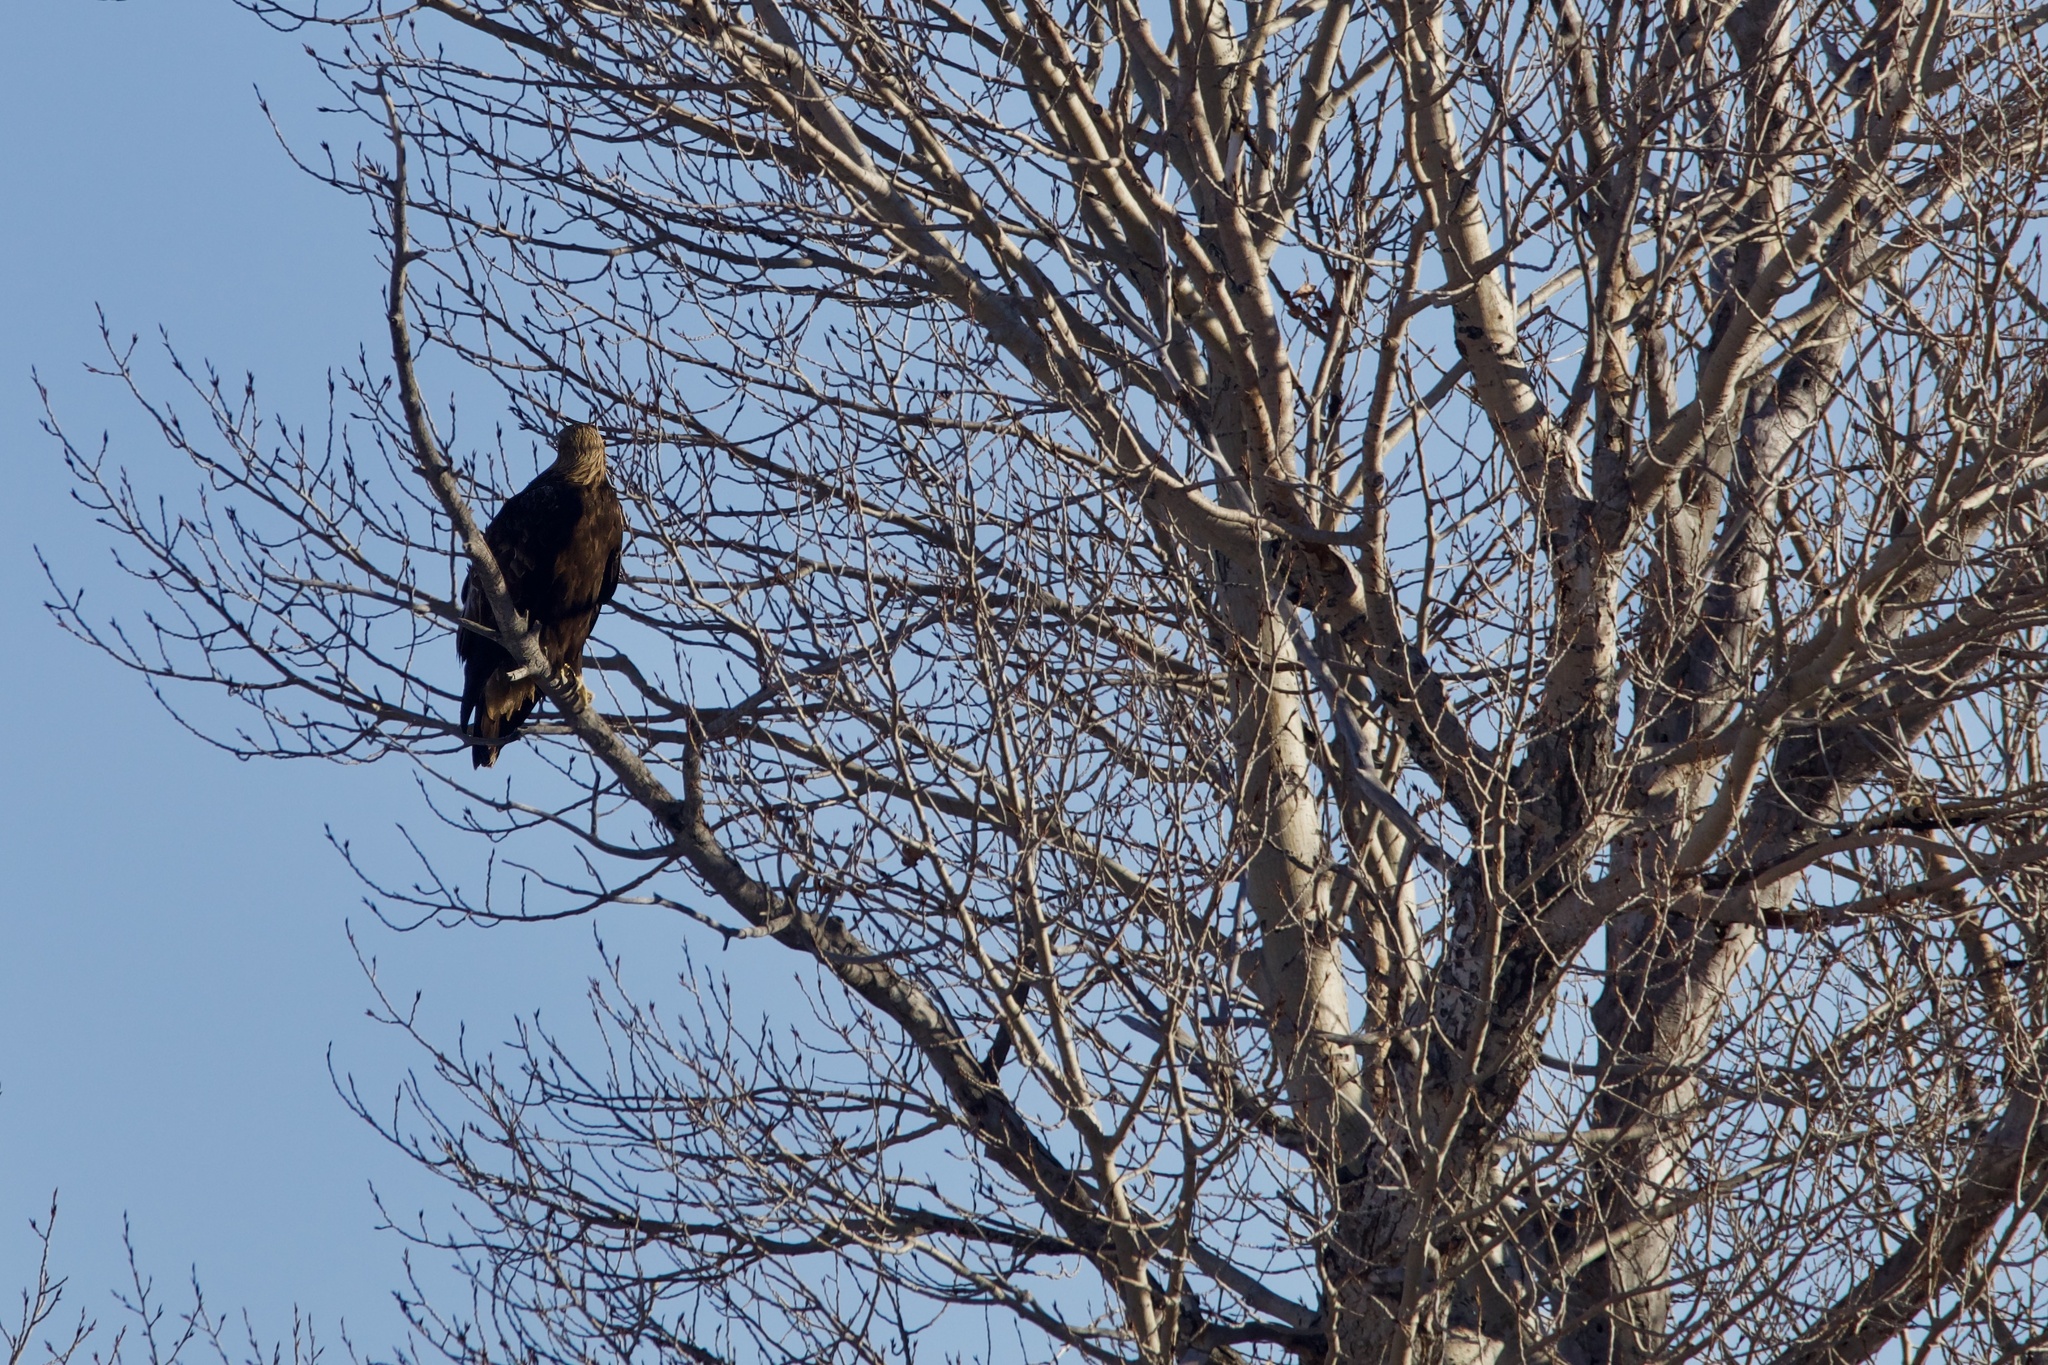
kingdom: Animalia
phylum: Chordata
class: Aves
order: Accipitriformes
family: Accipitridae
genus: Aquila
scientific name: Aquila chrysaetos
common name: Golden eagle
